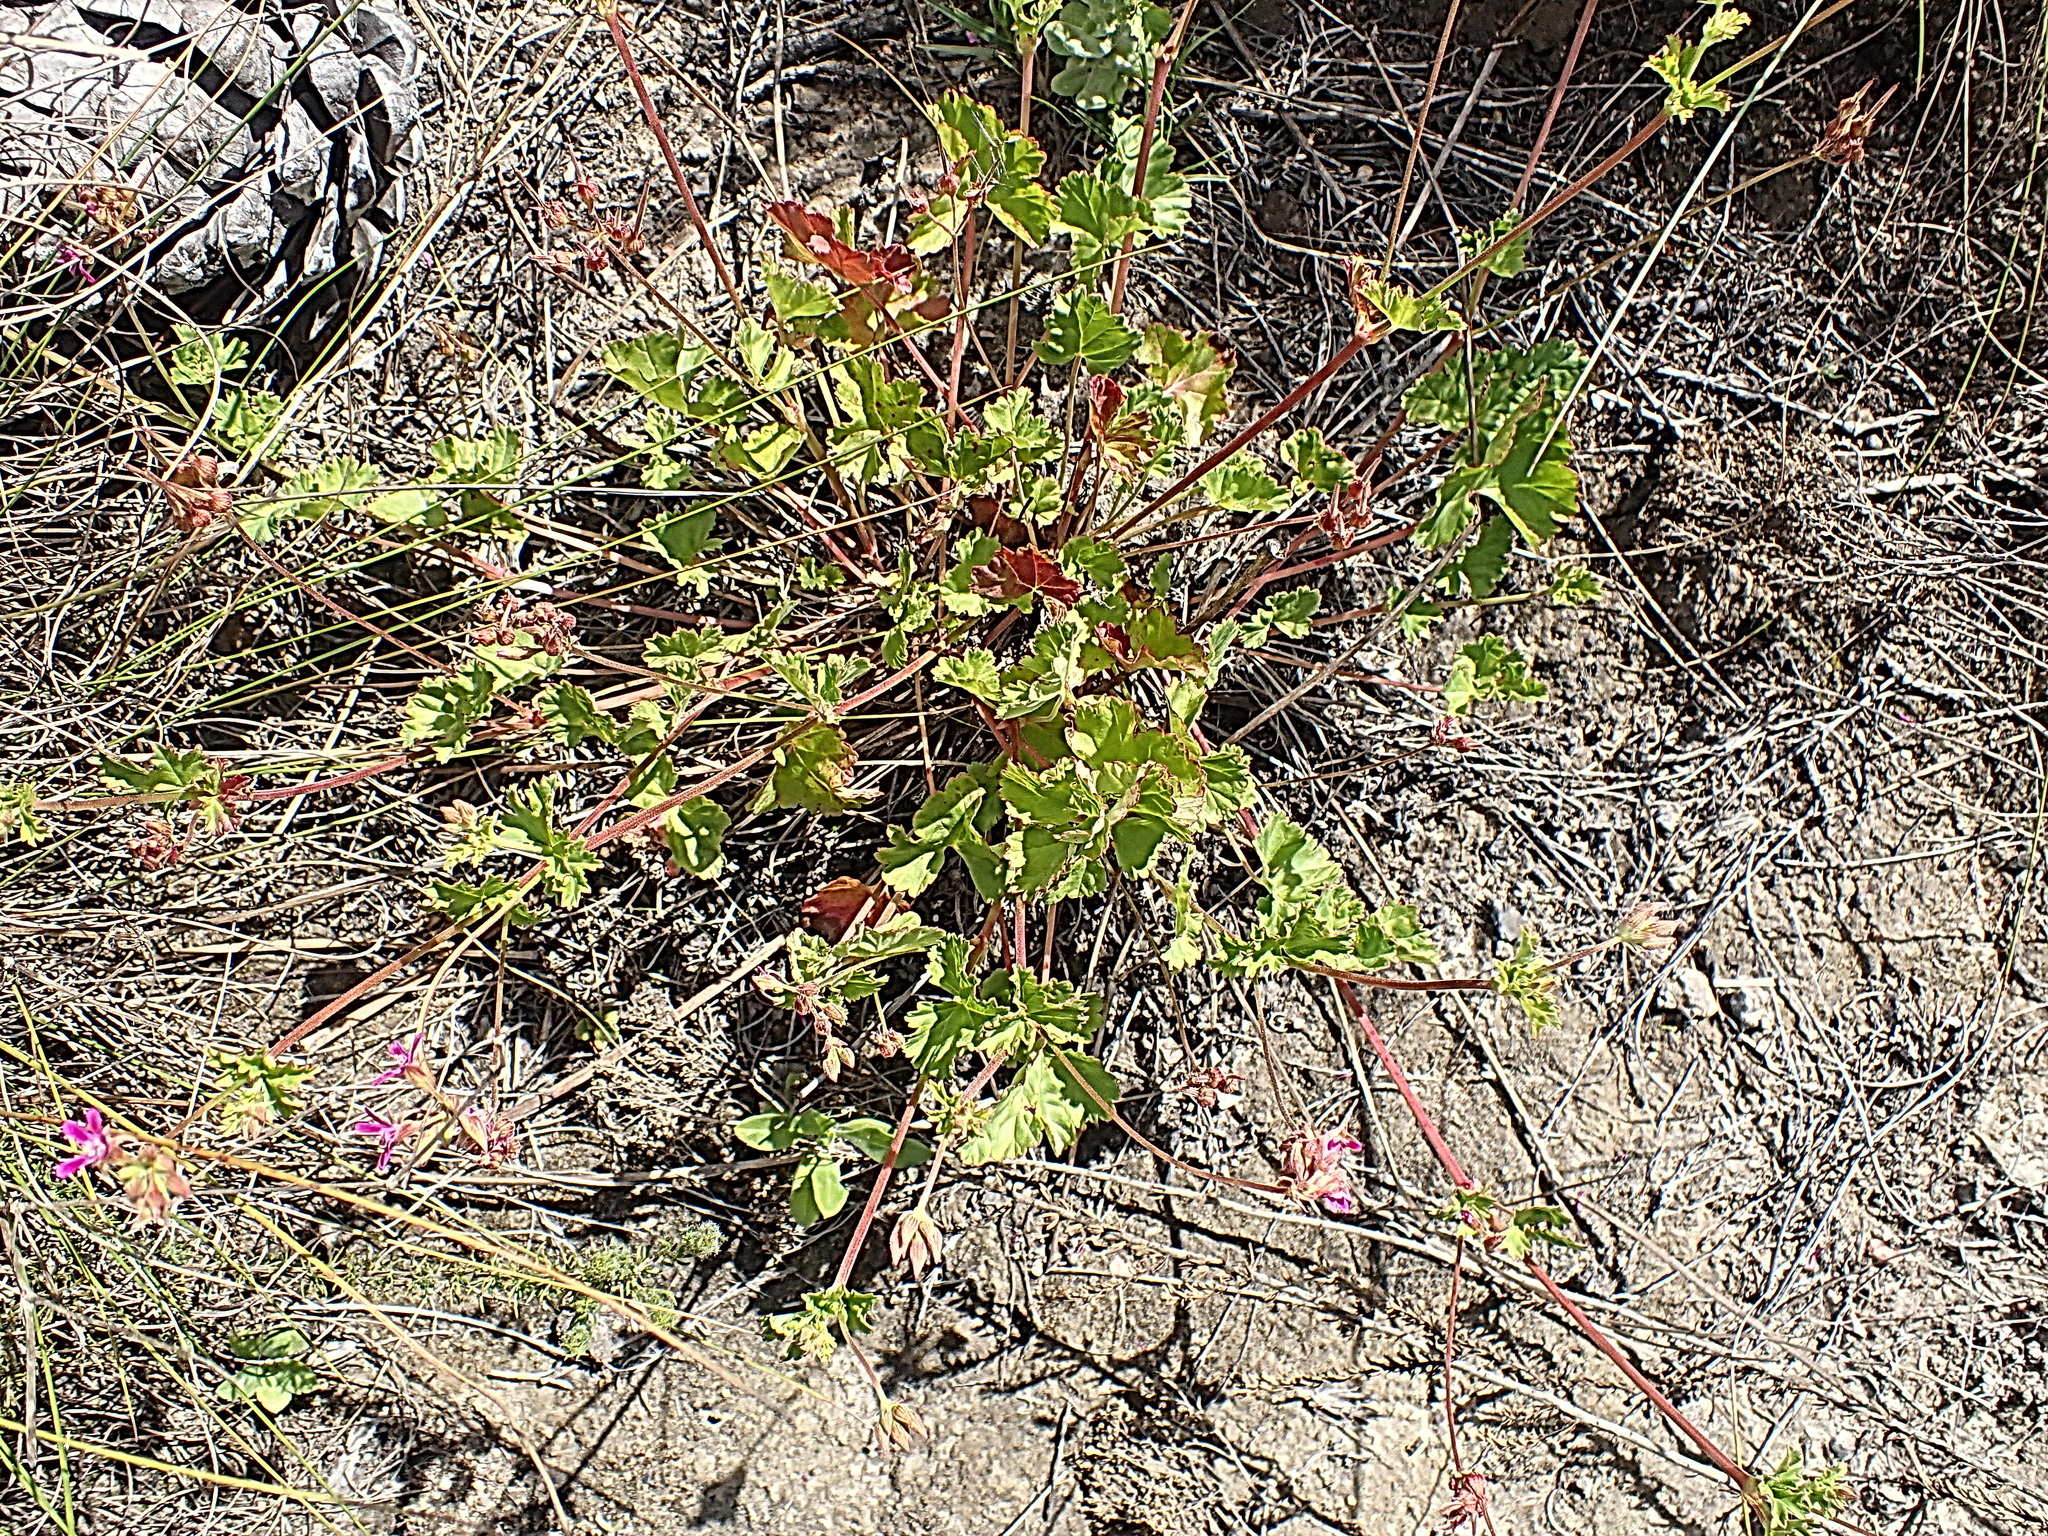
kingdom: Plantae
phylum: Tracheophyta
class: Magnoliopsida
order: Geraniales
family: Geraniaceae
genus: Pelargonium
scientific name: Pelargonium grossularioides
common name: Gooseberry geranium
